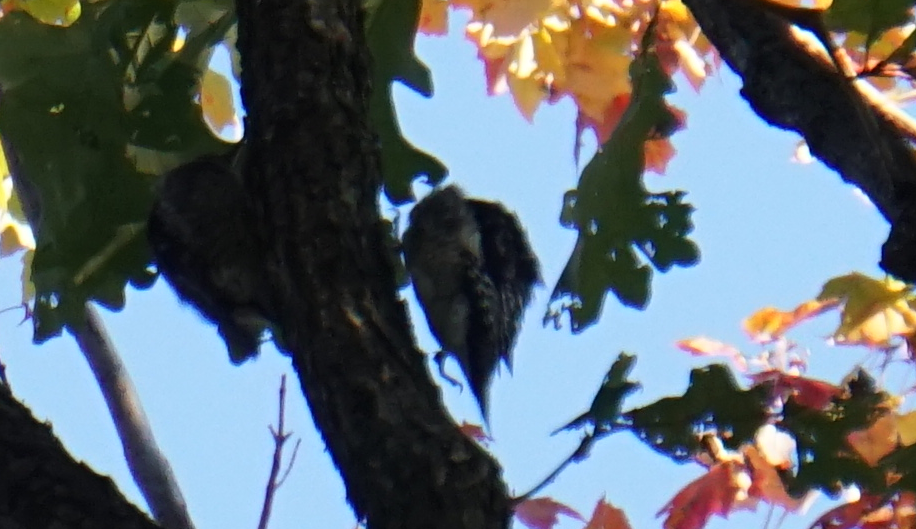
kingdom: Animalia
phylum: Chordata
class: Aves
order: Piciformes
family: Picidae
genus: Sphyrapicus
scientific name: Sphyrapicus varius
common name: Yellow-bellied sapsucker
